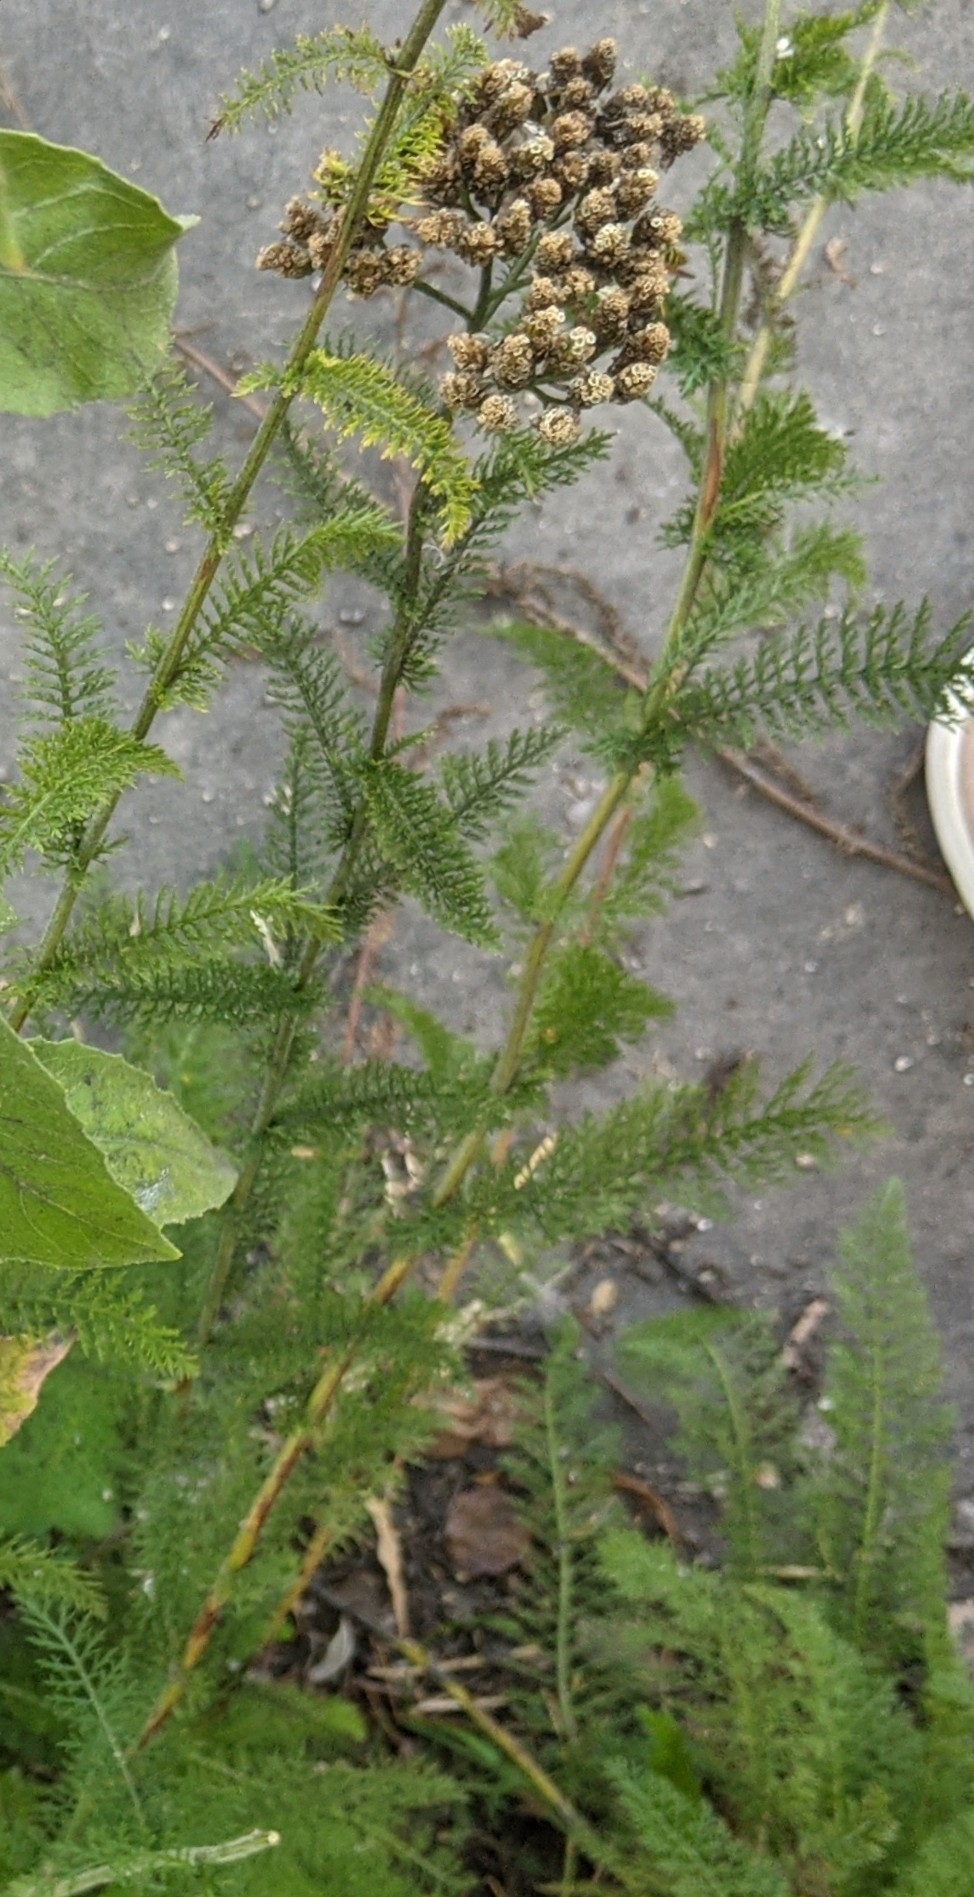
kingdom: Plantae
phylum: Tracheophyta
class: Magnoliopsida
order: Asterales
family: Asteraceae
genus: Achillea
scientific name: Achillea millefolium
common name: Yarrow
